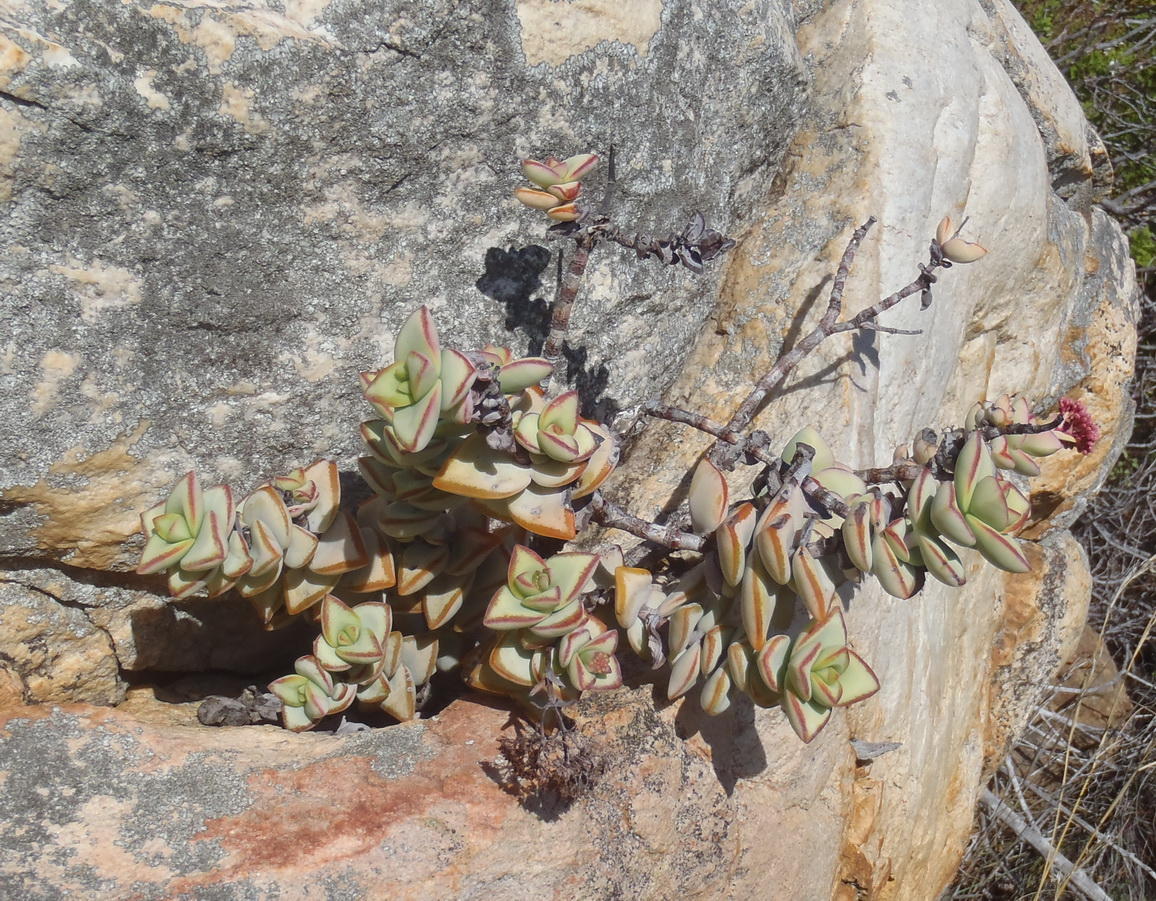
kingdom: Plantae
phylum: Tracheophyta
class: Magnoliopsida
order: Saxifragales
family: Crassulaceae
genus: Crassula
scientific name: Crassula rupestris
